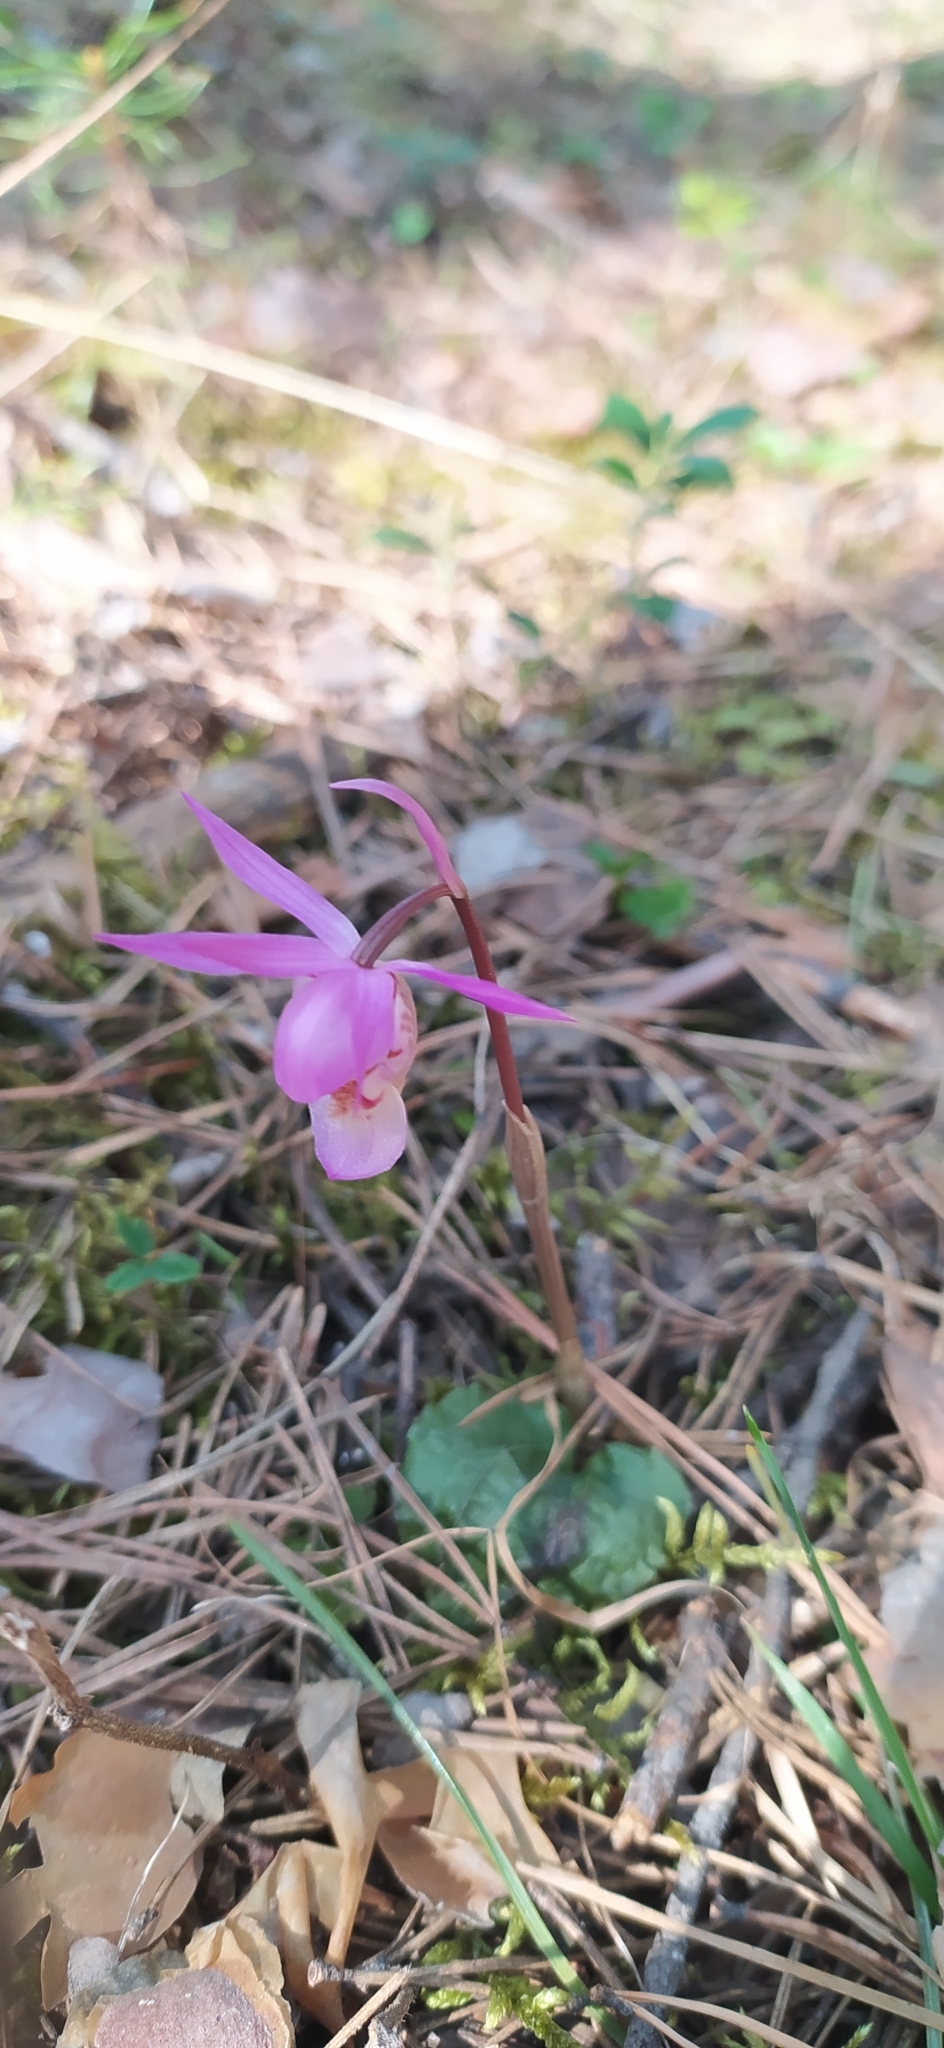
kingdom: Plantae
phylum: Tracheophyta
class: Liliopsida
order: Asparagales
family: Orchidaceae
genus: Calypso
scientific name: Calypso bulbosa
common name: Calypso
